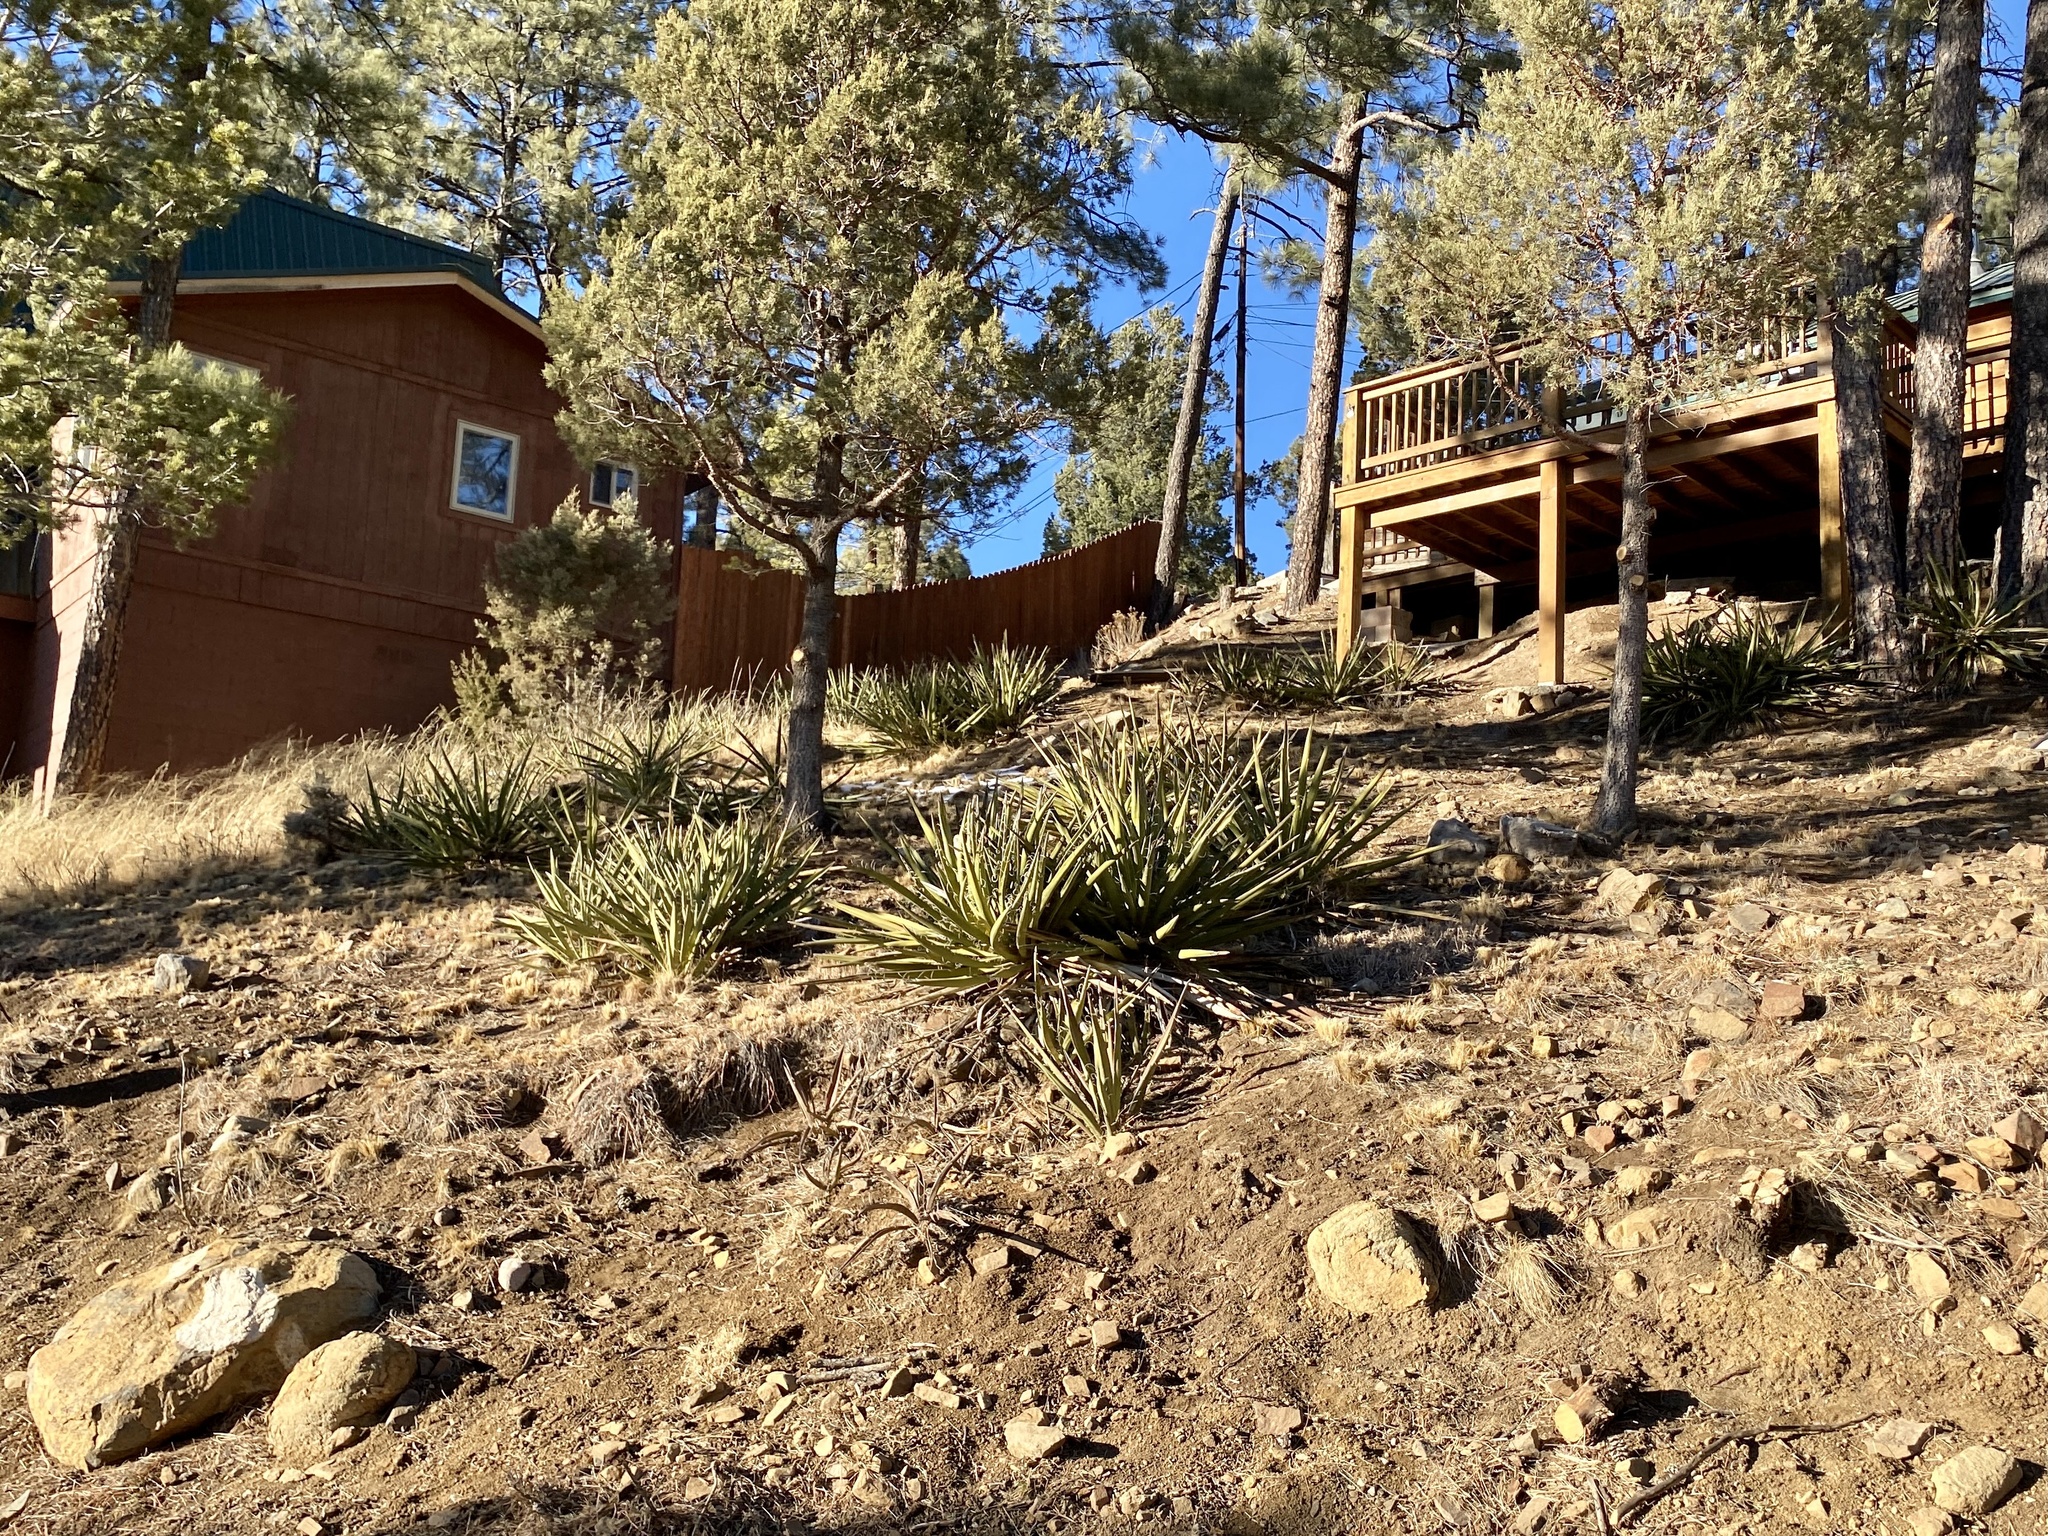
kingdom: Plantae
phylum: Tracheophyta
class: Liliopsida
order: Asparagales
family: Asparagaceae
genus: Yucca
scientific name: Yucca baccata
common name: Banana yucca
